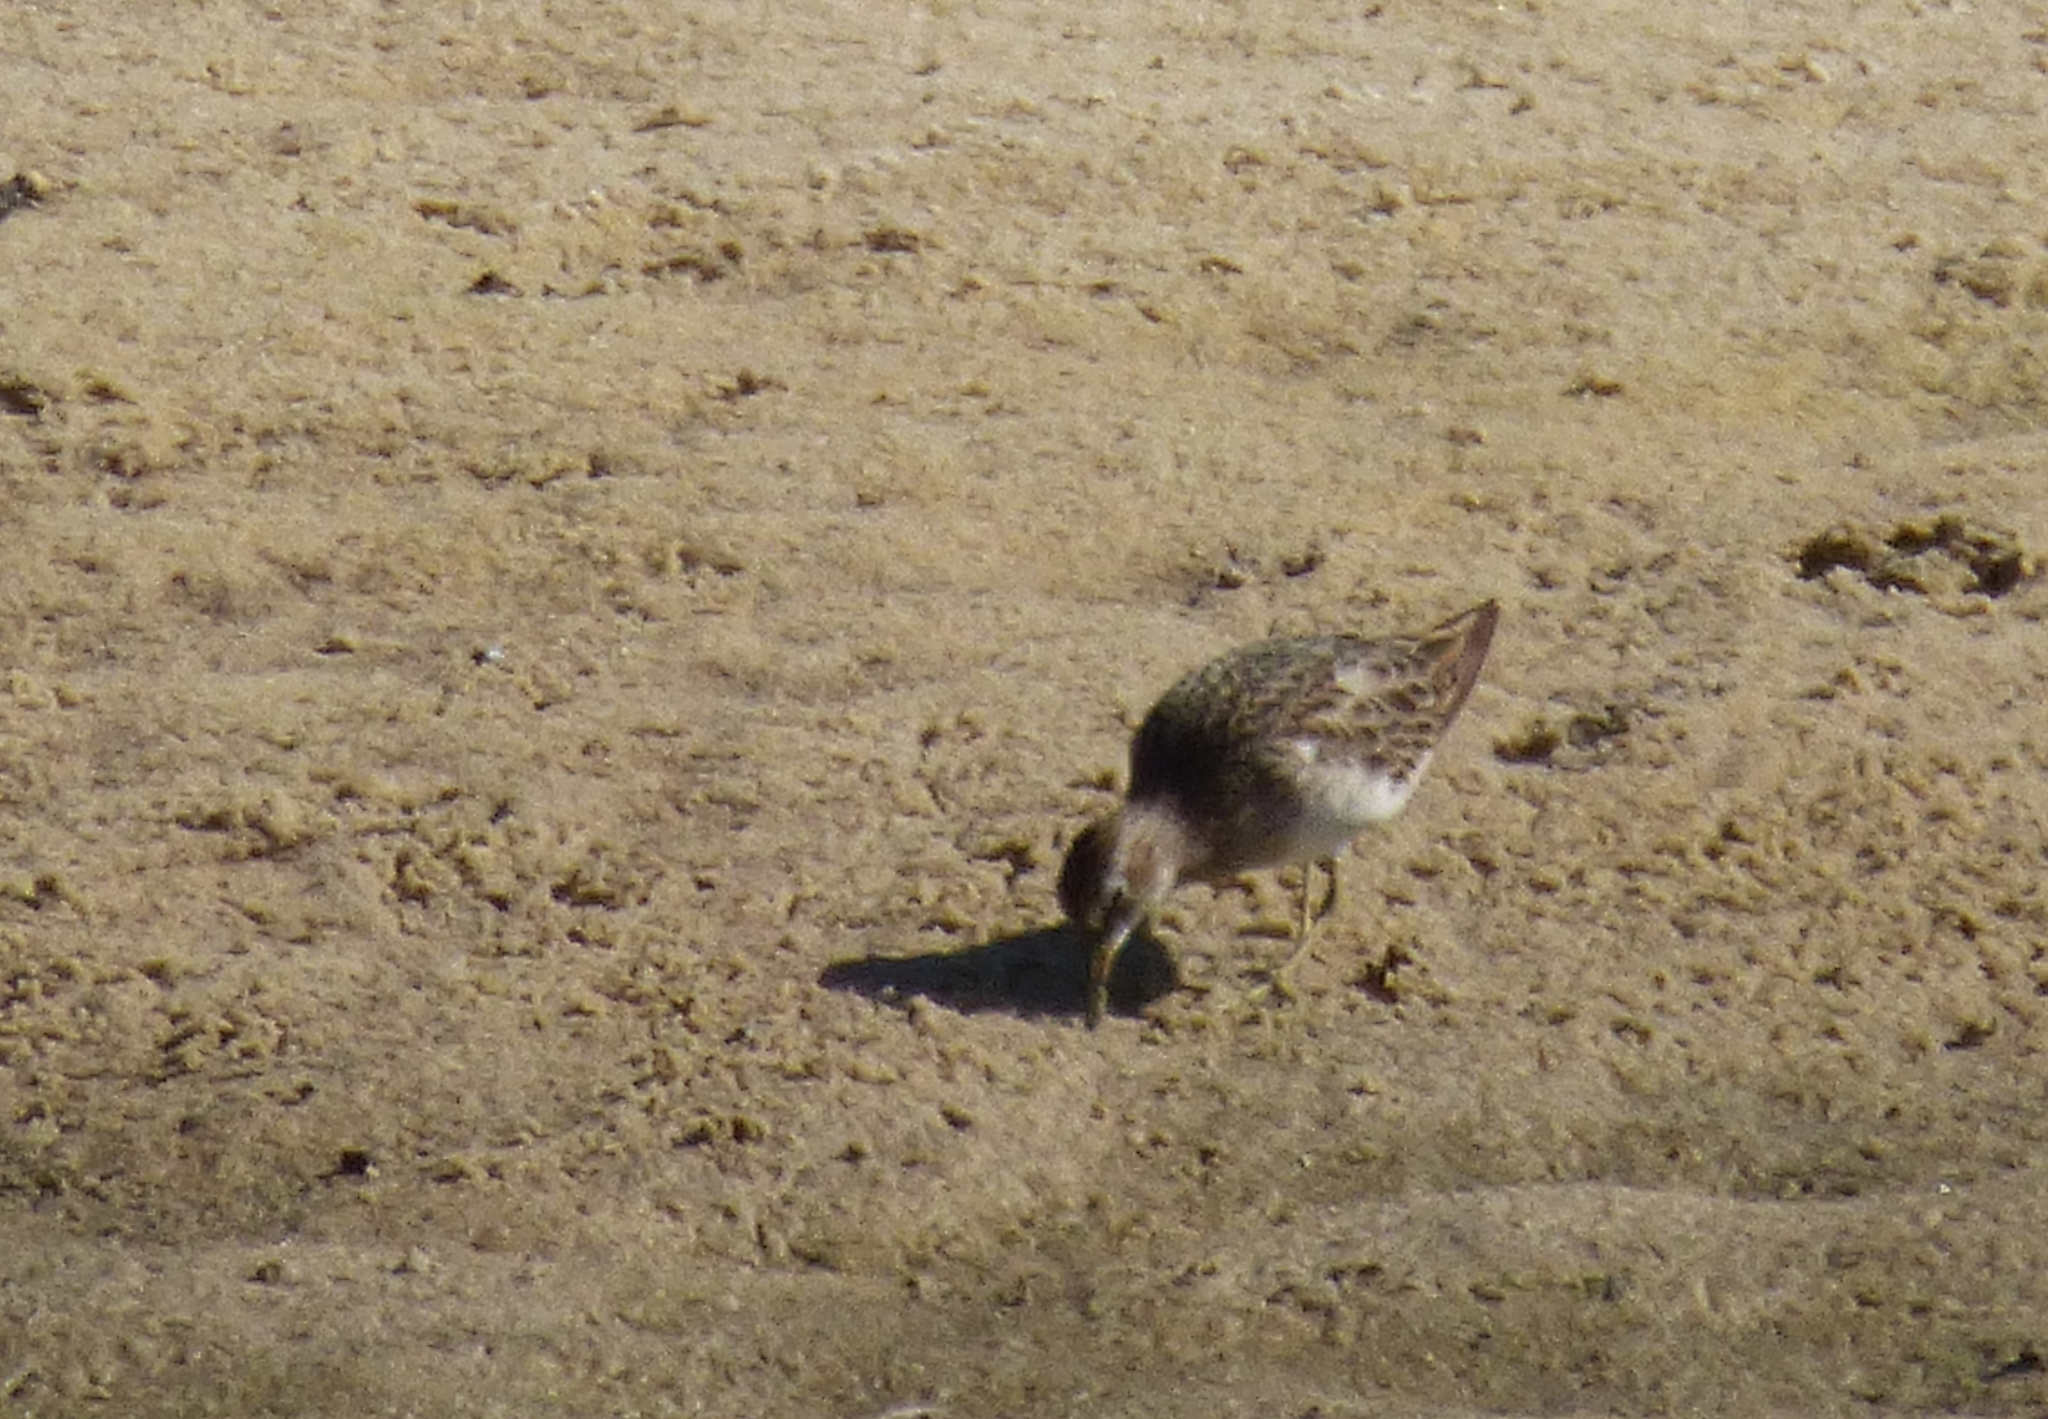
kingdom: Animalia
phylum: Chordata
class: Aves
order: Charadriiformes
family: Scolopacidae
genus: Calidris
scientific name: Calidris melanotos
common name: Pectoral sandpiper
